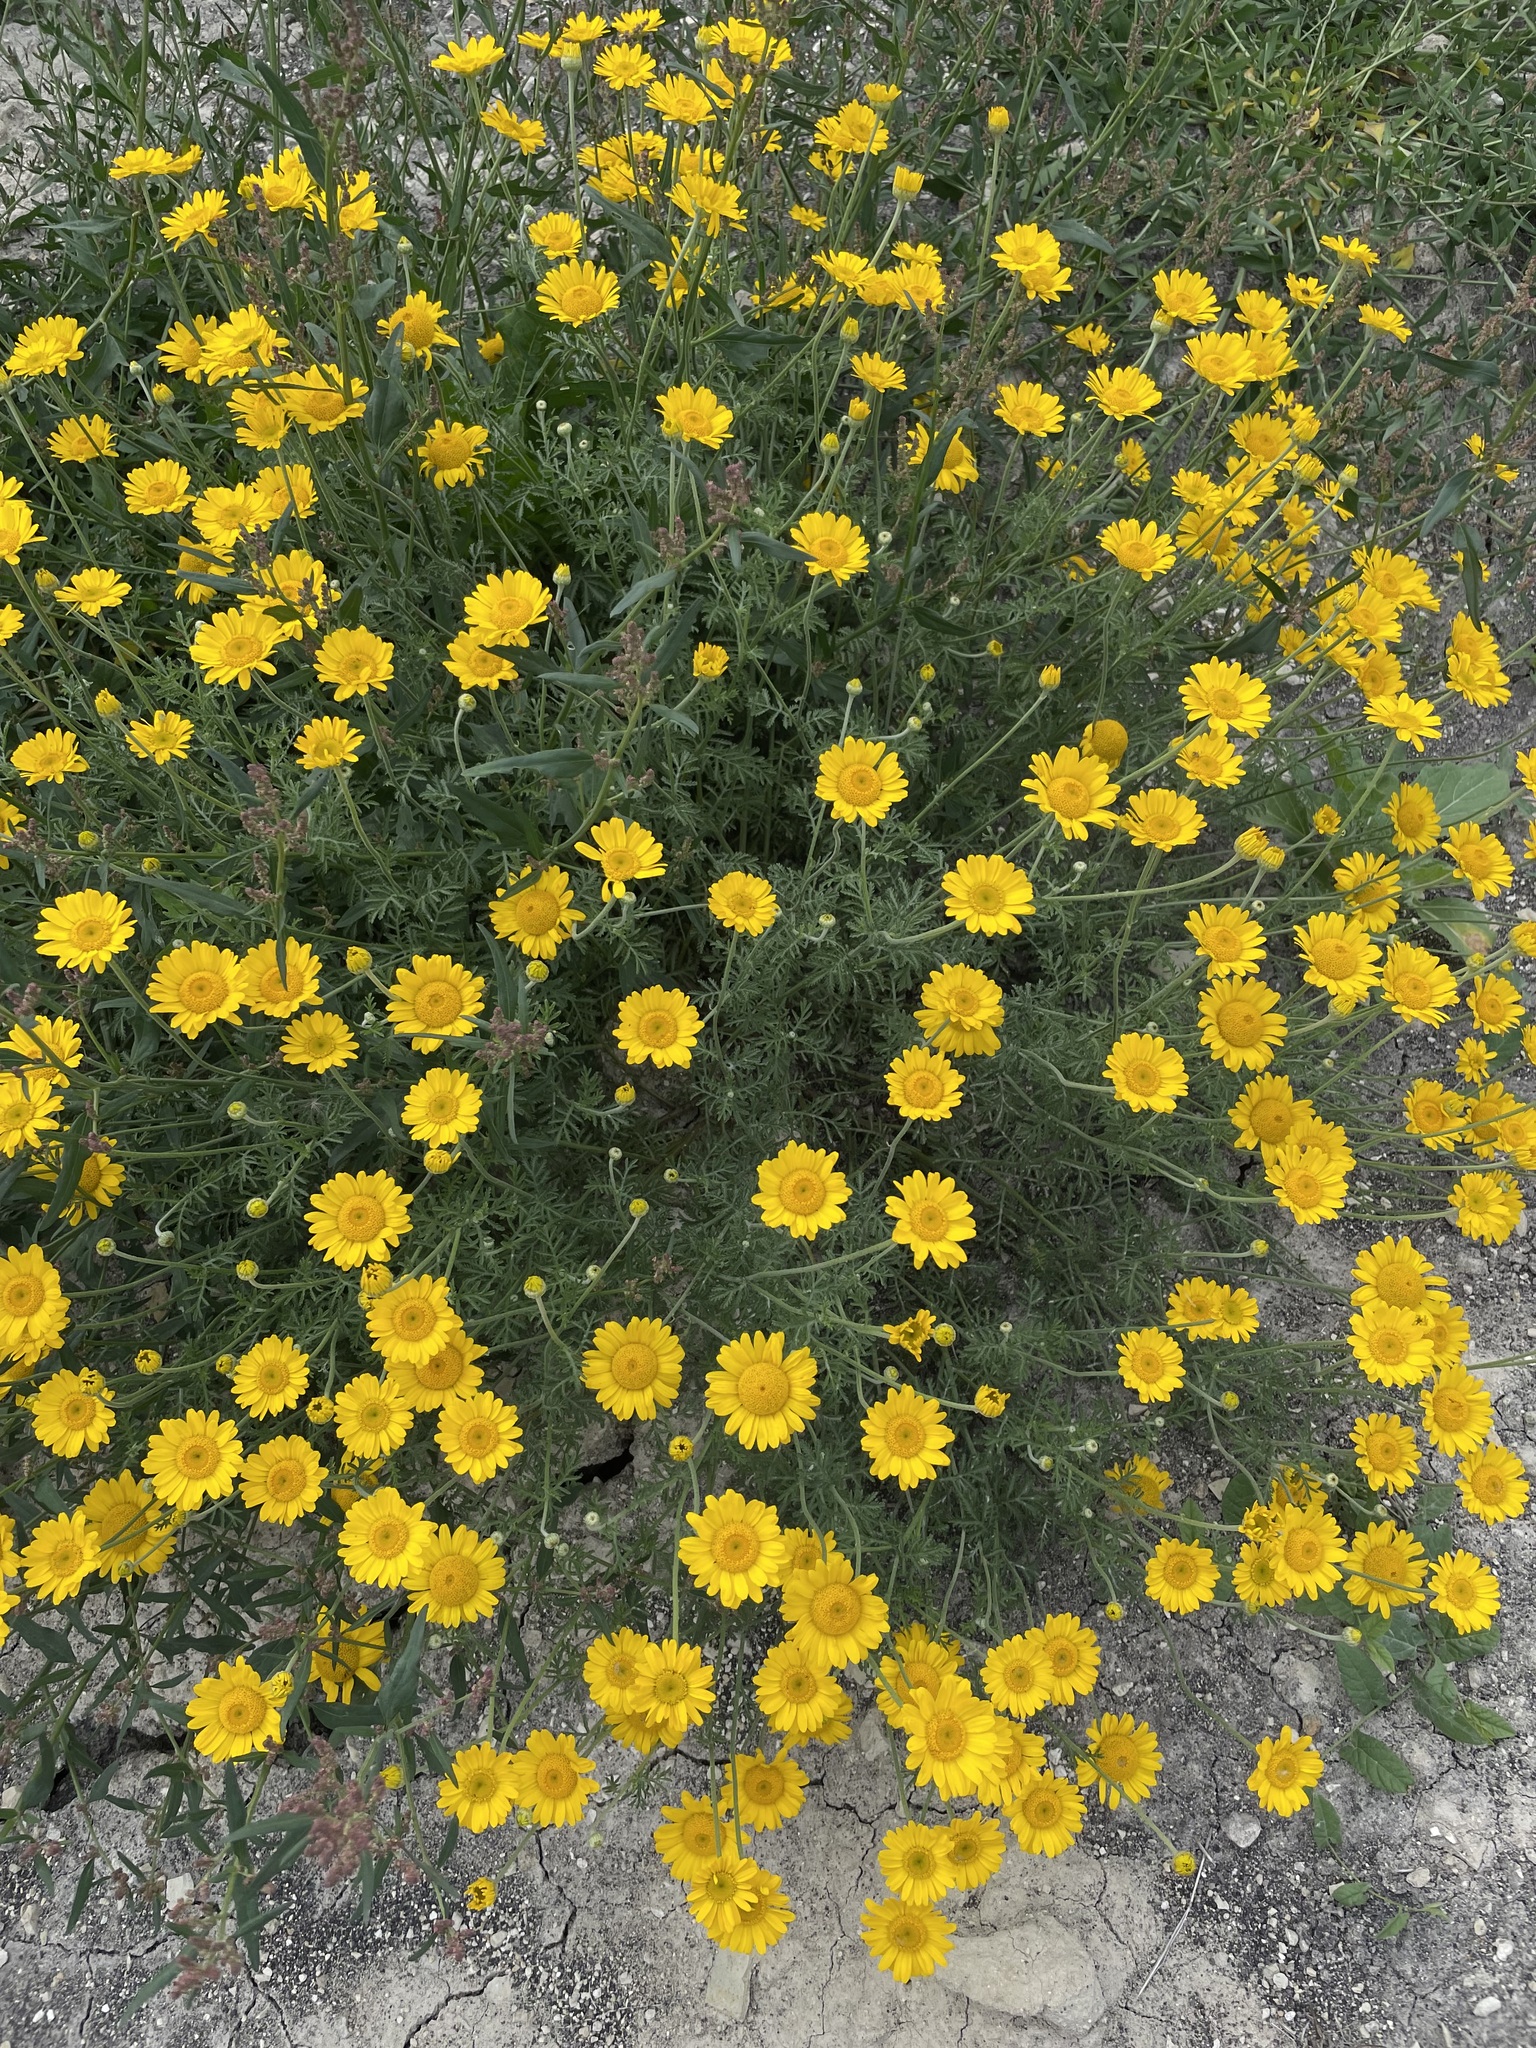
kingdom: Plantae
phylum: Tracheophyta
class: Magnoliopsida
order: Asterales
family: Asteraceae
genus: Cota
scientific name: Cota tinctoria
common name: Golden chamomile
